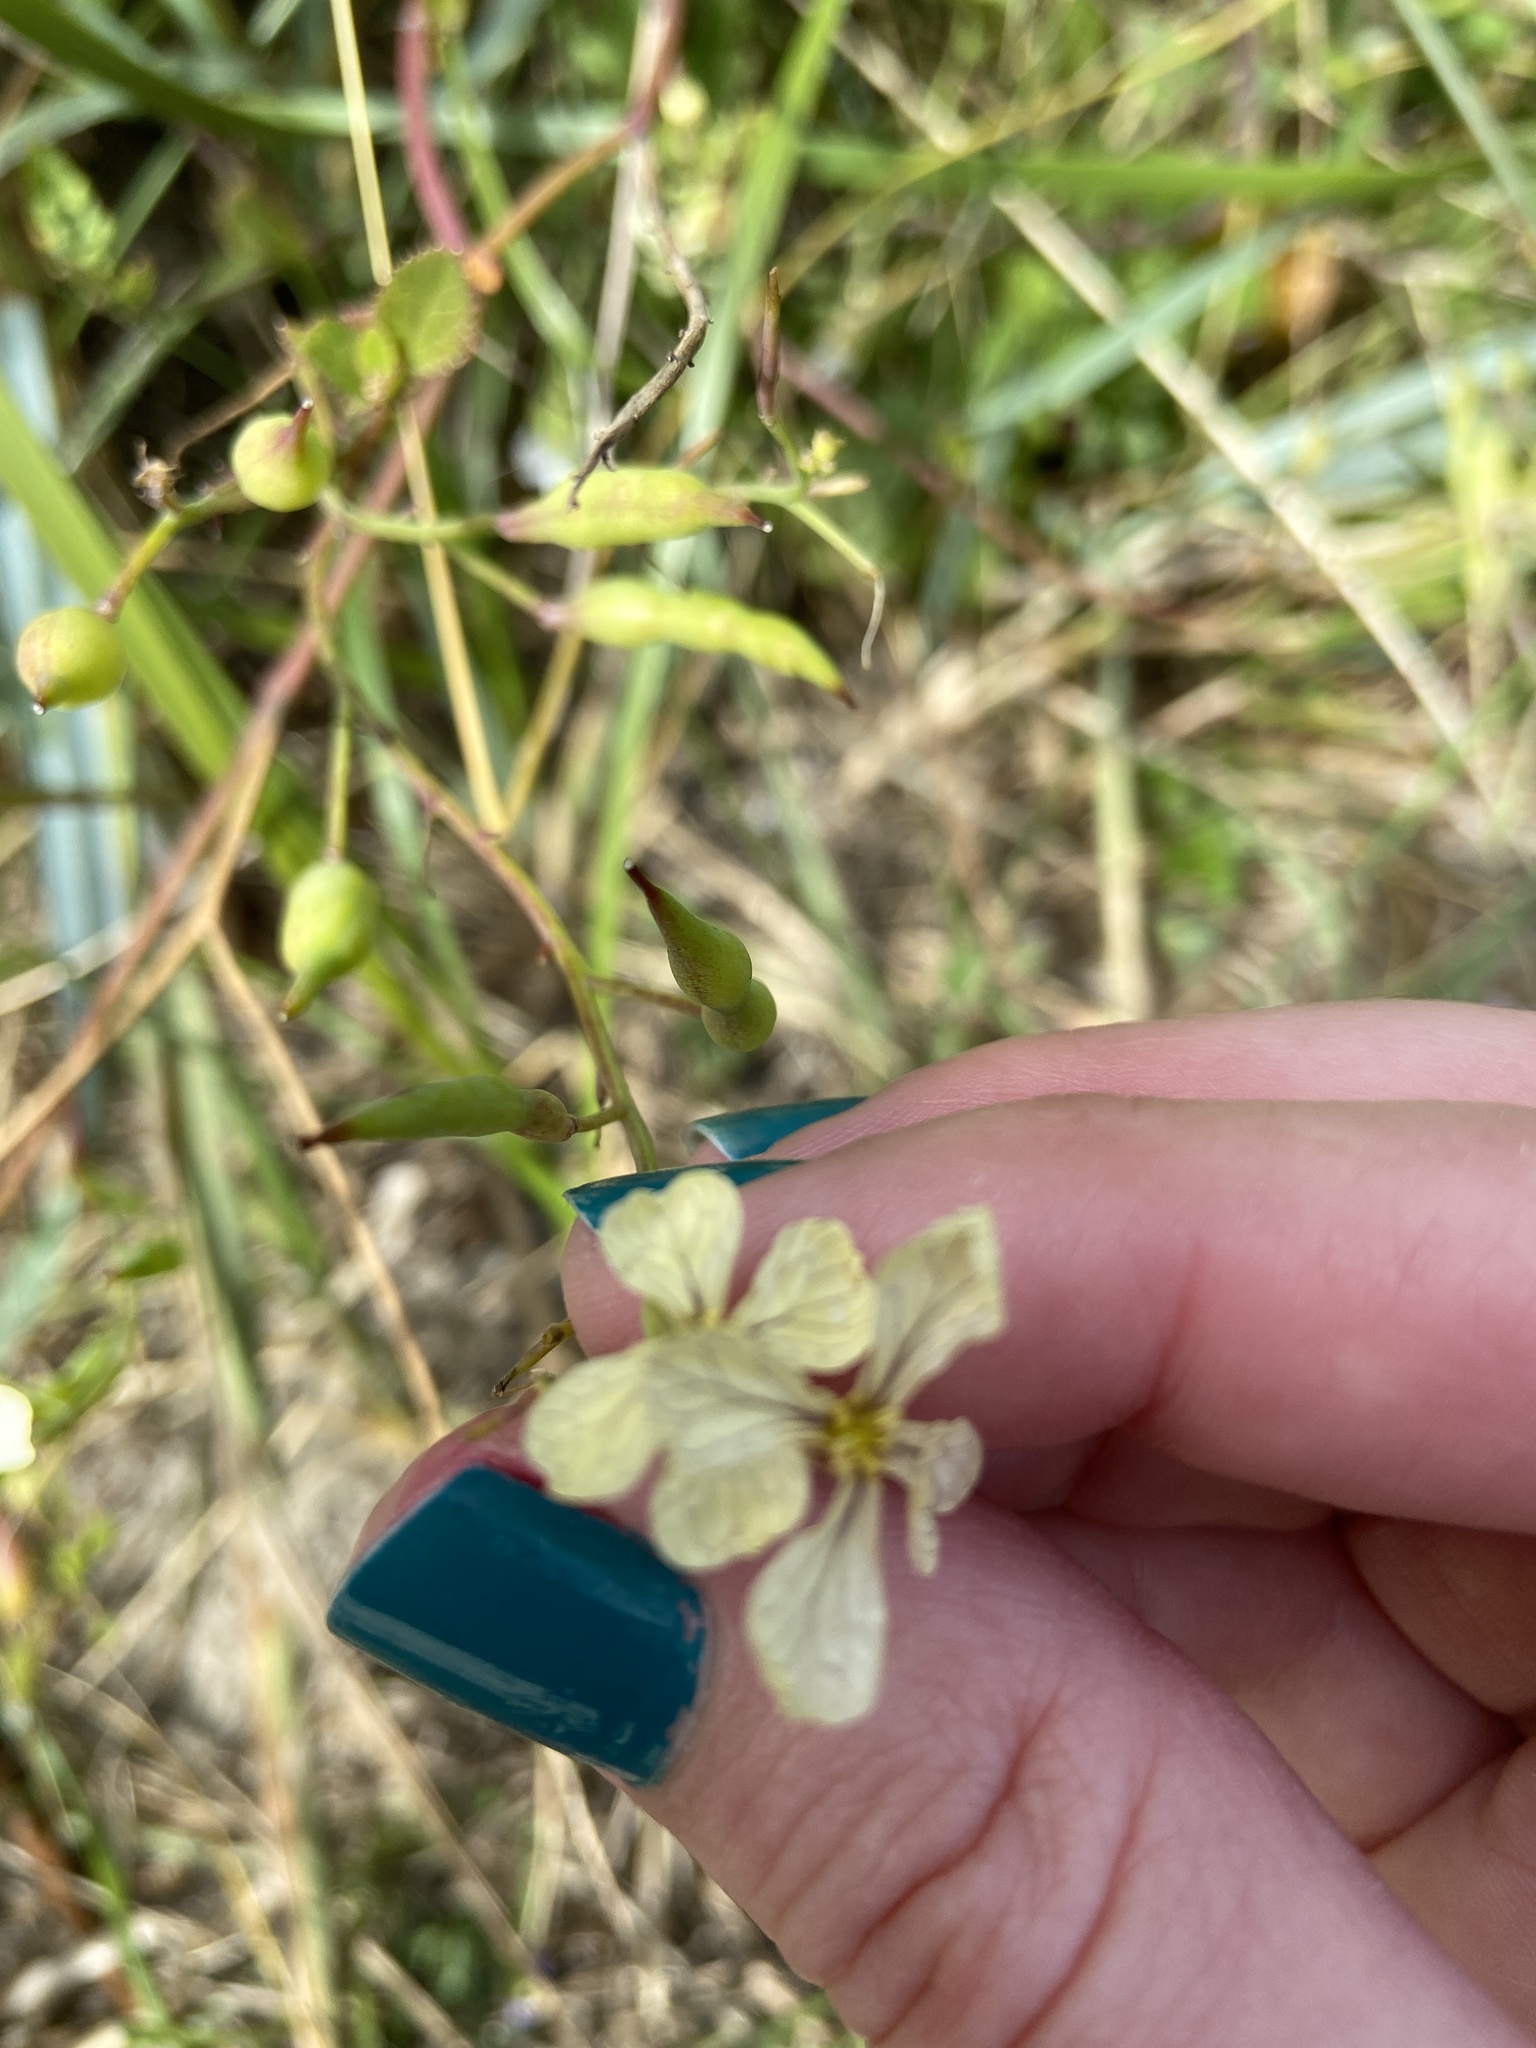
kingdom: Plantae
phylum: Tracheophyta
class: Magnoliopsida
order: Brassicales
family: Brassicaceae
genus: Raphanus
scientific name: Raphanus sativus
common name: Cultivated radish
